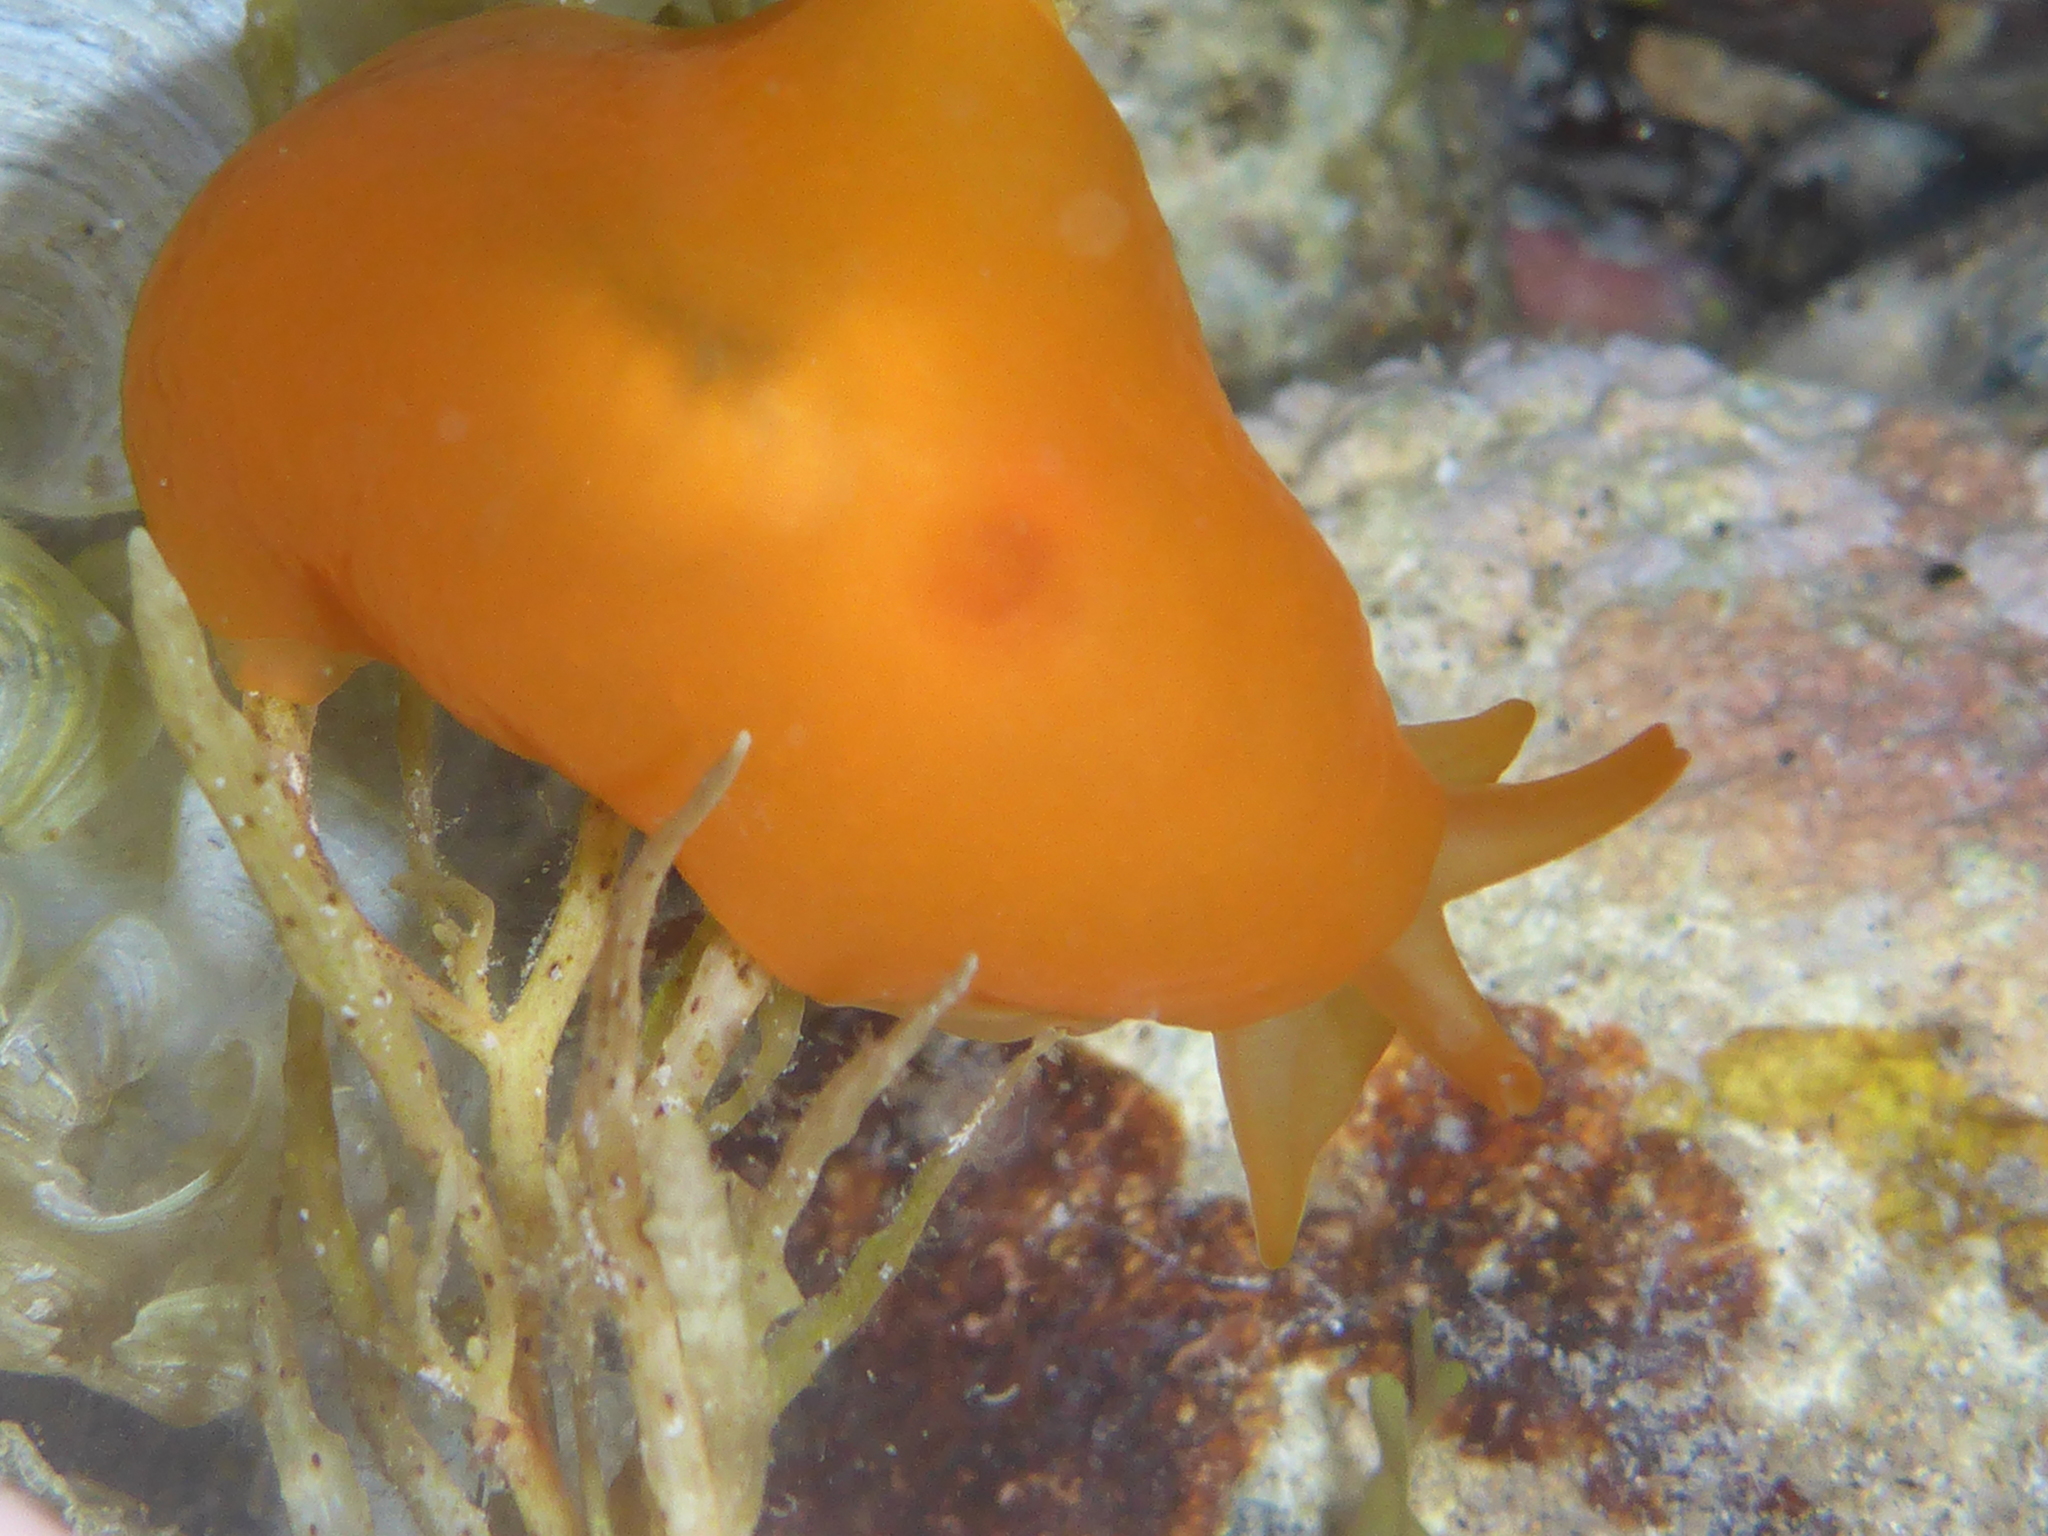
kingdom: Animalia
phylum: Mollusca
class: Gastropoda
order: Pleurobranchida
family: Pleurobranchidae
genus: Berthellina
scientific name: Berthellina delicata
